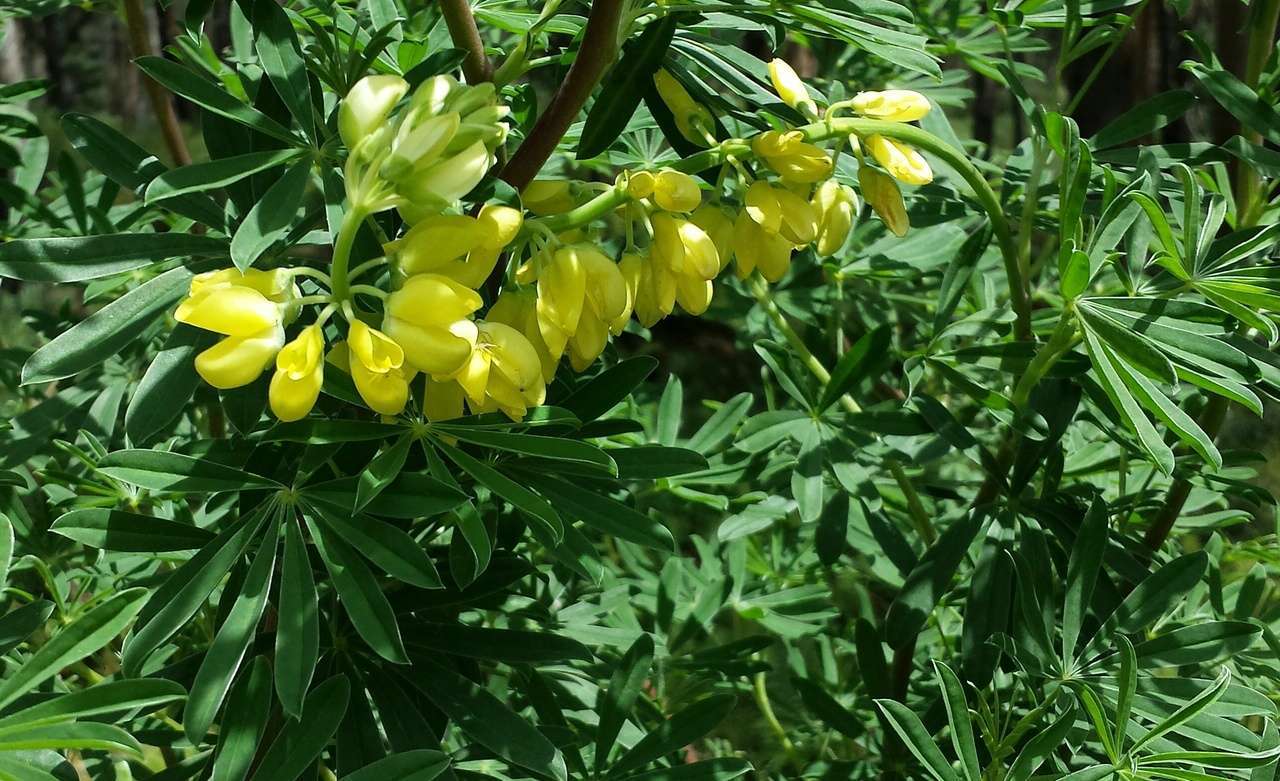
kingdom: Plantae
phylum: Tracheophyta
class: Magnoliopsida
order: Fabales
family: Fabaceae
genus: Lupinus
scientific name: Lupinus arboreus
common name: Yellow bush lupine
